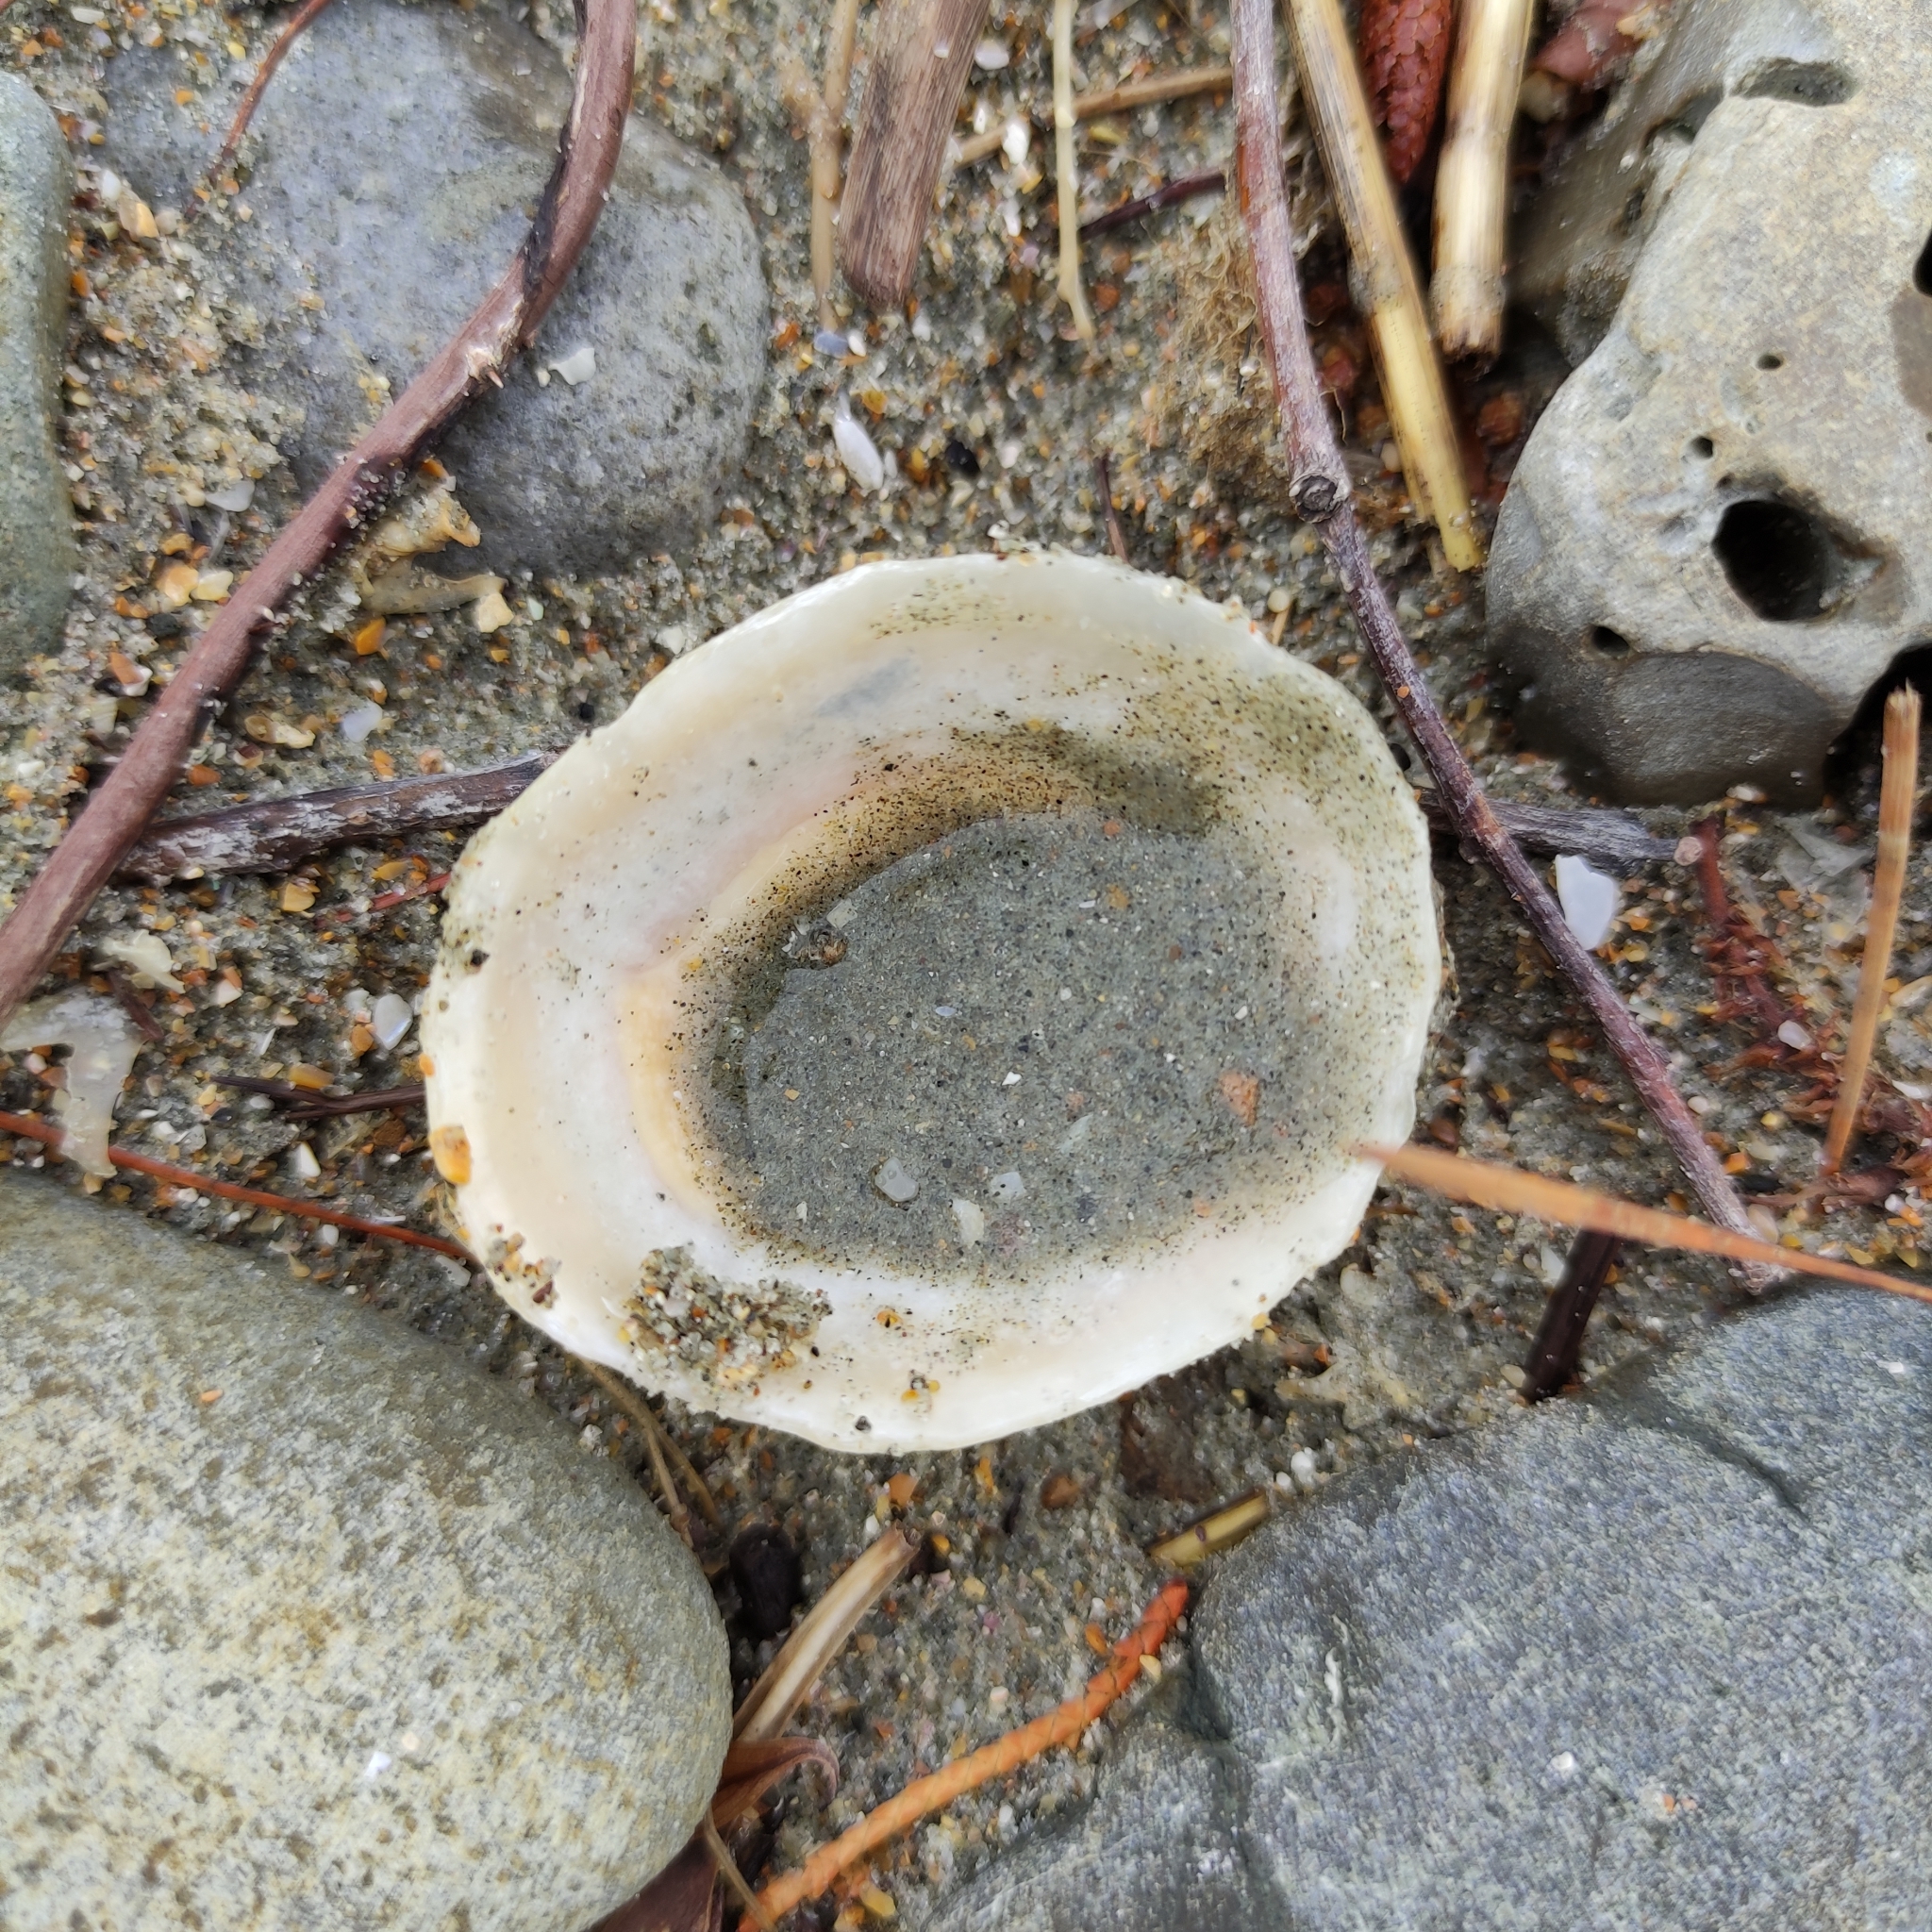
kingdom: Animalia
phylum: Mollusca
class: Gastropoda
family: Nacellidae
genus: Cellana
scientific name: Cellana flava
